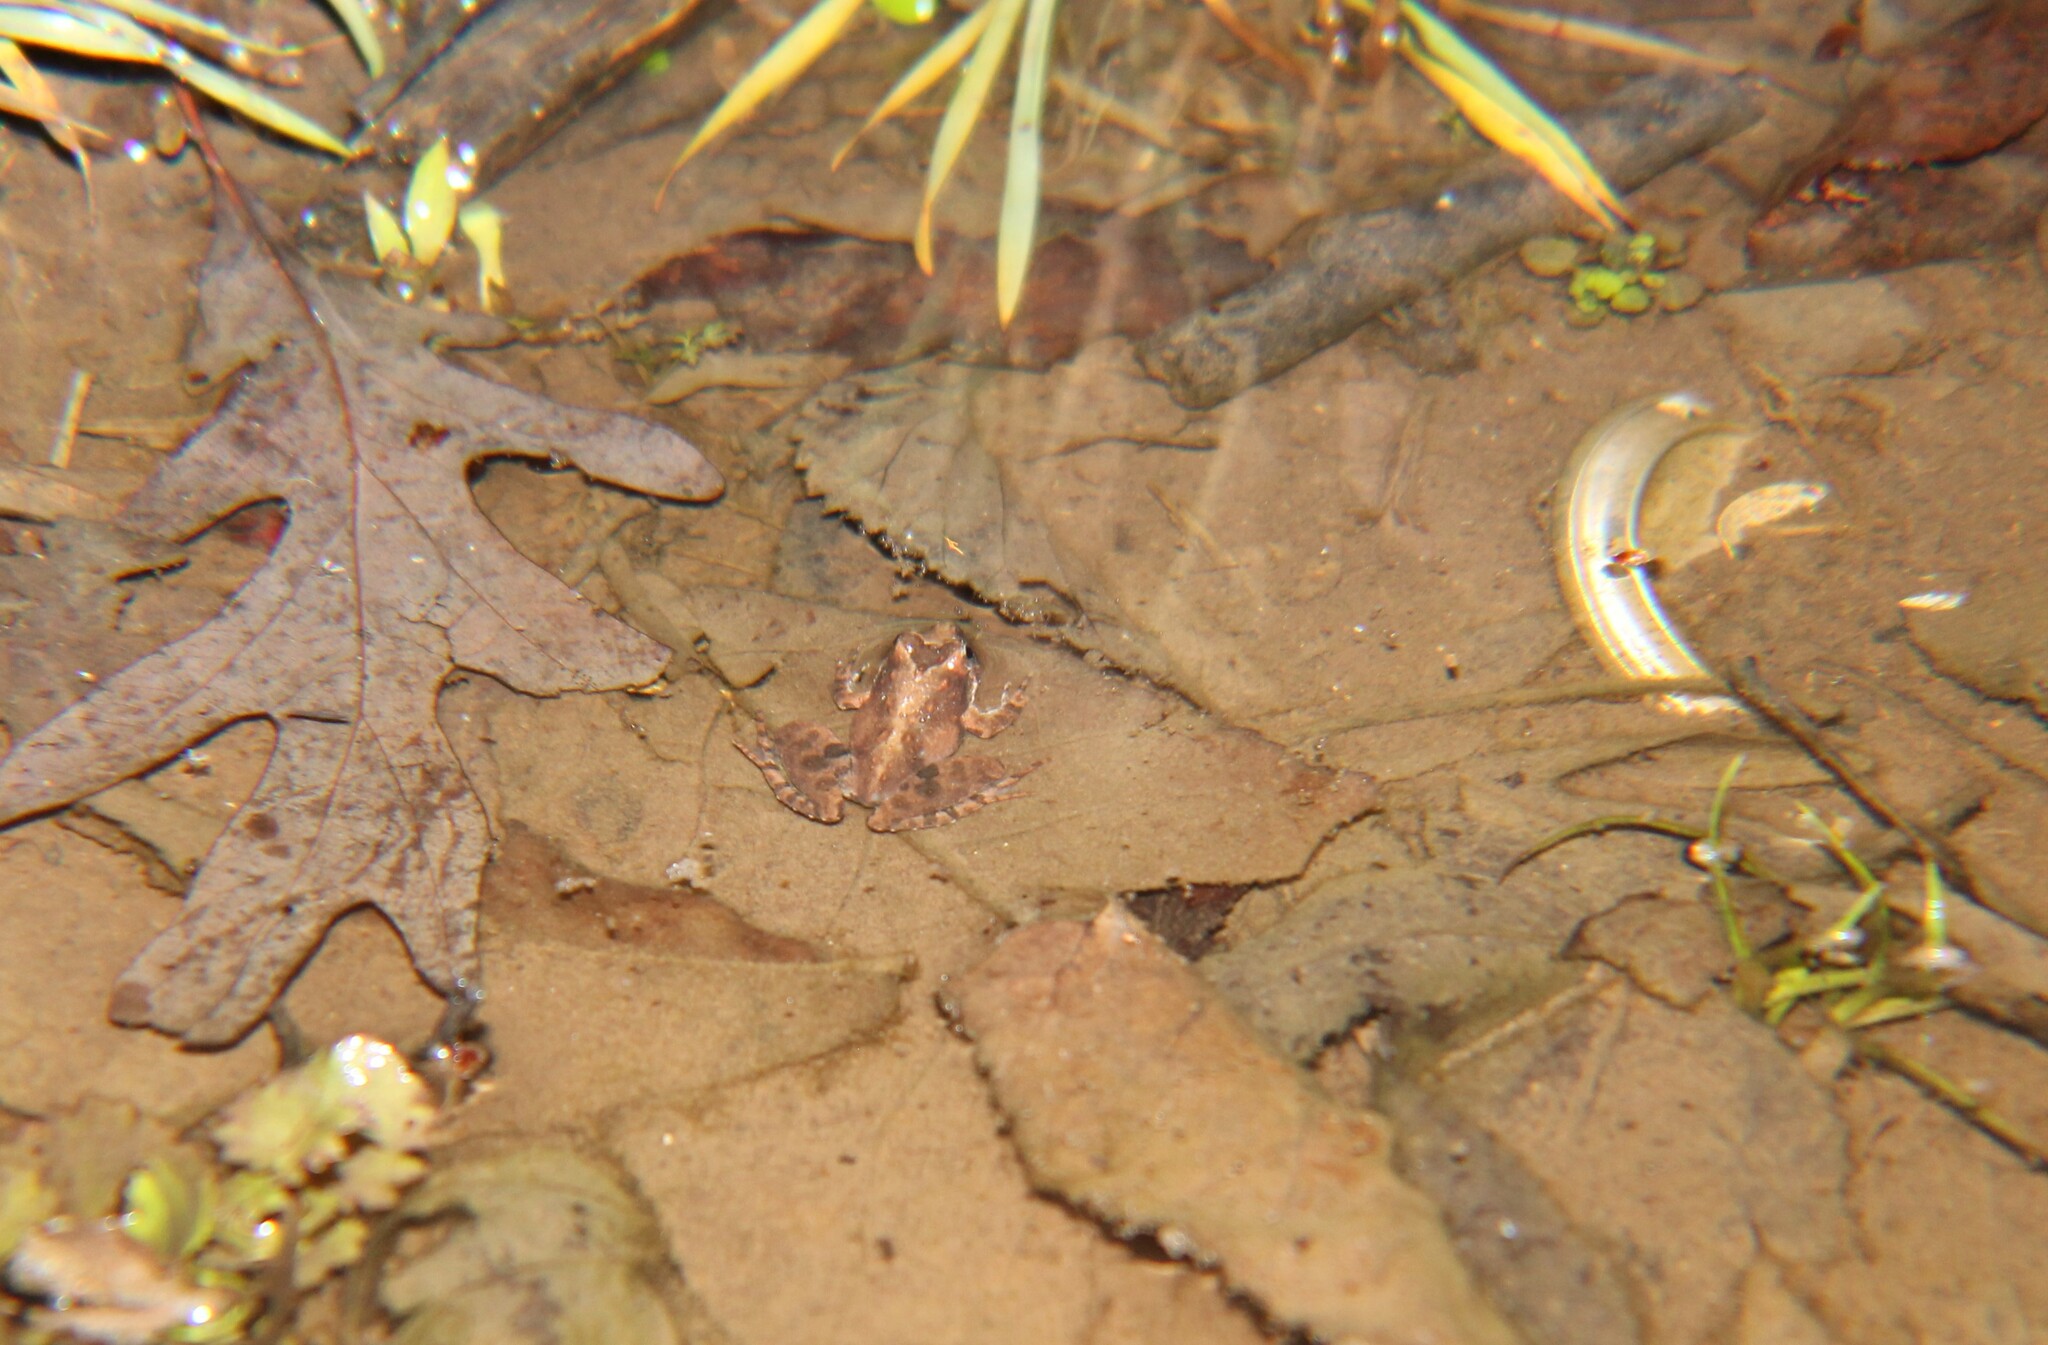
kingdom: Animalia
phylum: Chordata
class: Amphibia
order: Anura
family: Hylidae
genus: Acris
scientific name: Acris crepitans
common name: Northern cricket frog
